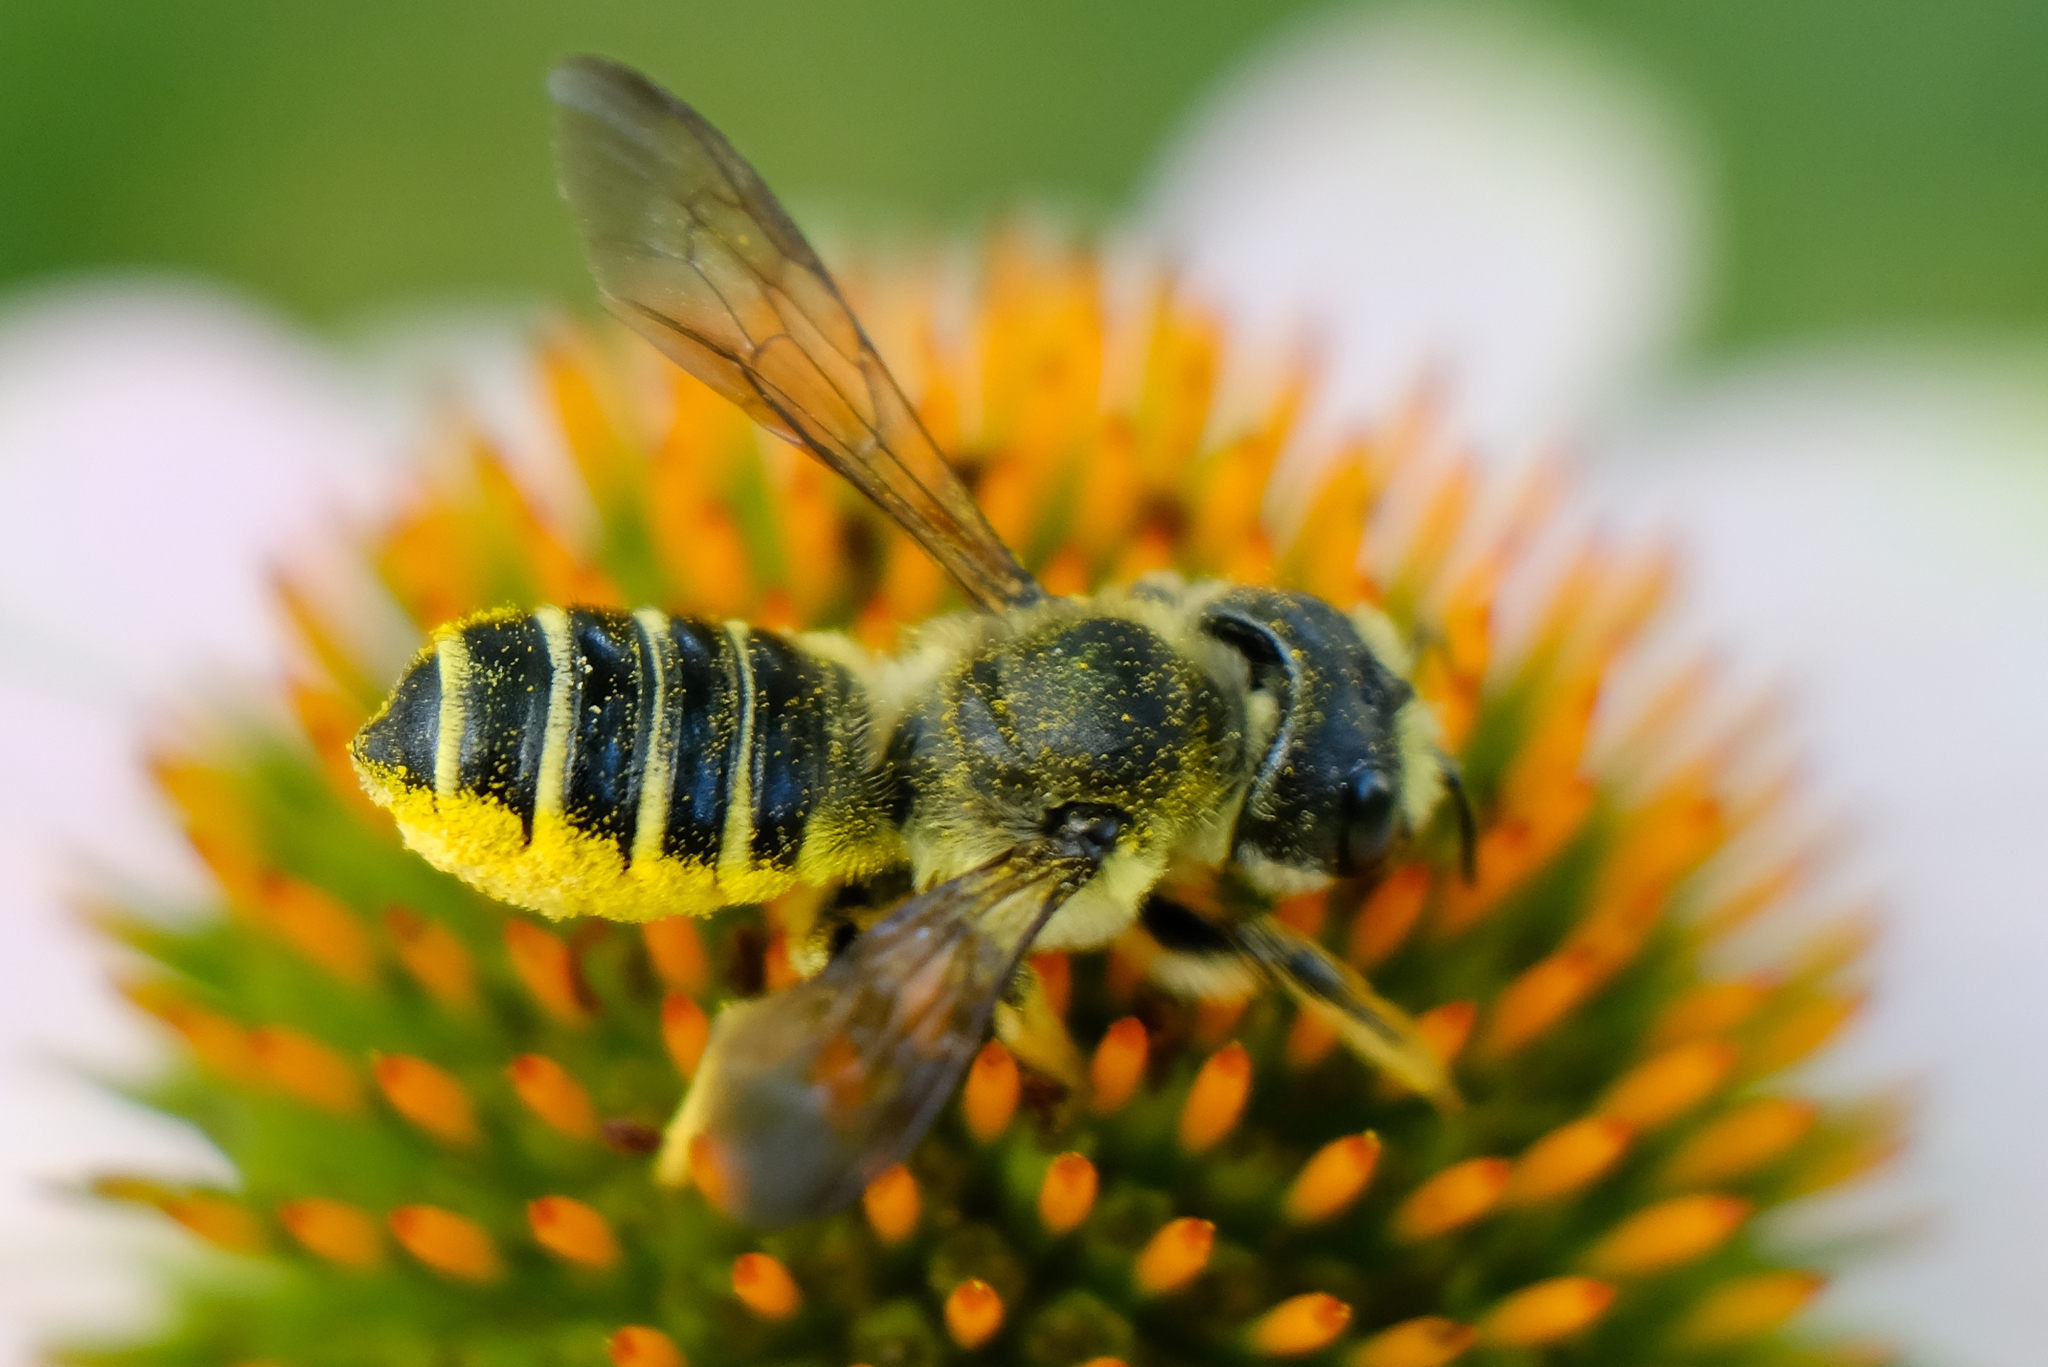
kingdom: Animalia
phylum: Arthropoda
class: Insecta
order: Hymenoptera
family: Megachilidae
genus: Megachile
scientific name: Megachile pugnata
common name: Pugnacious leafcutter bee
